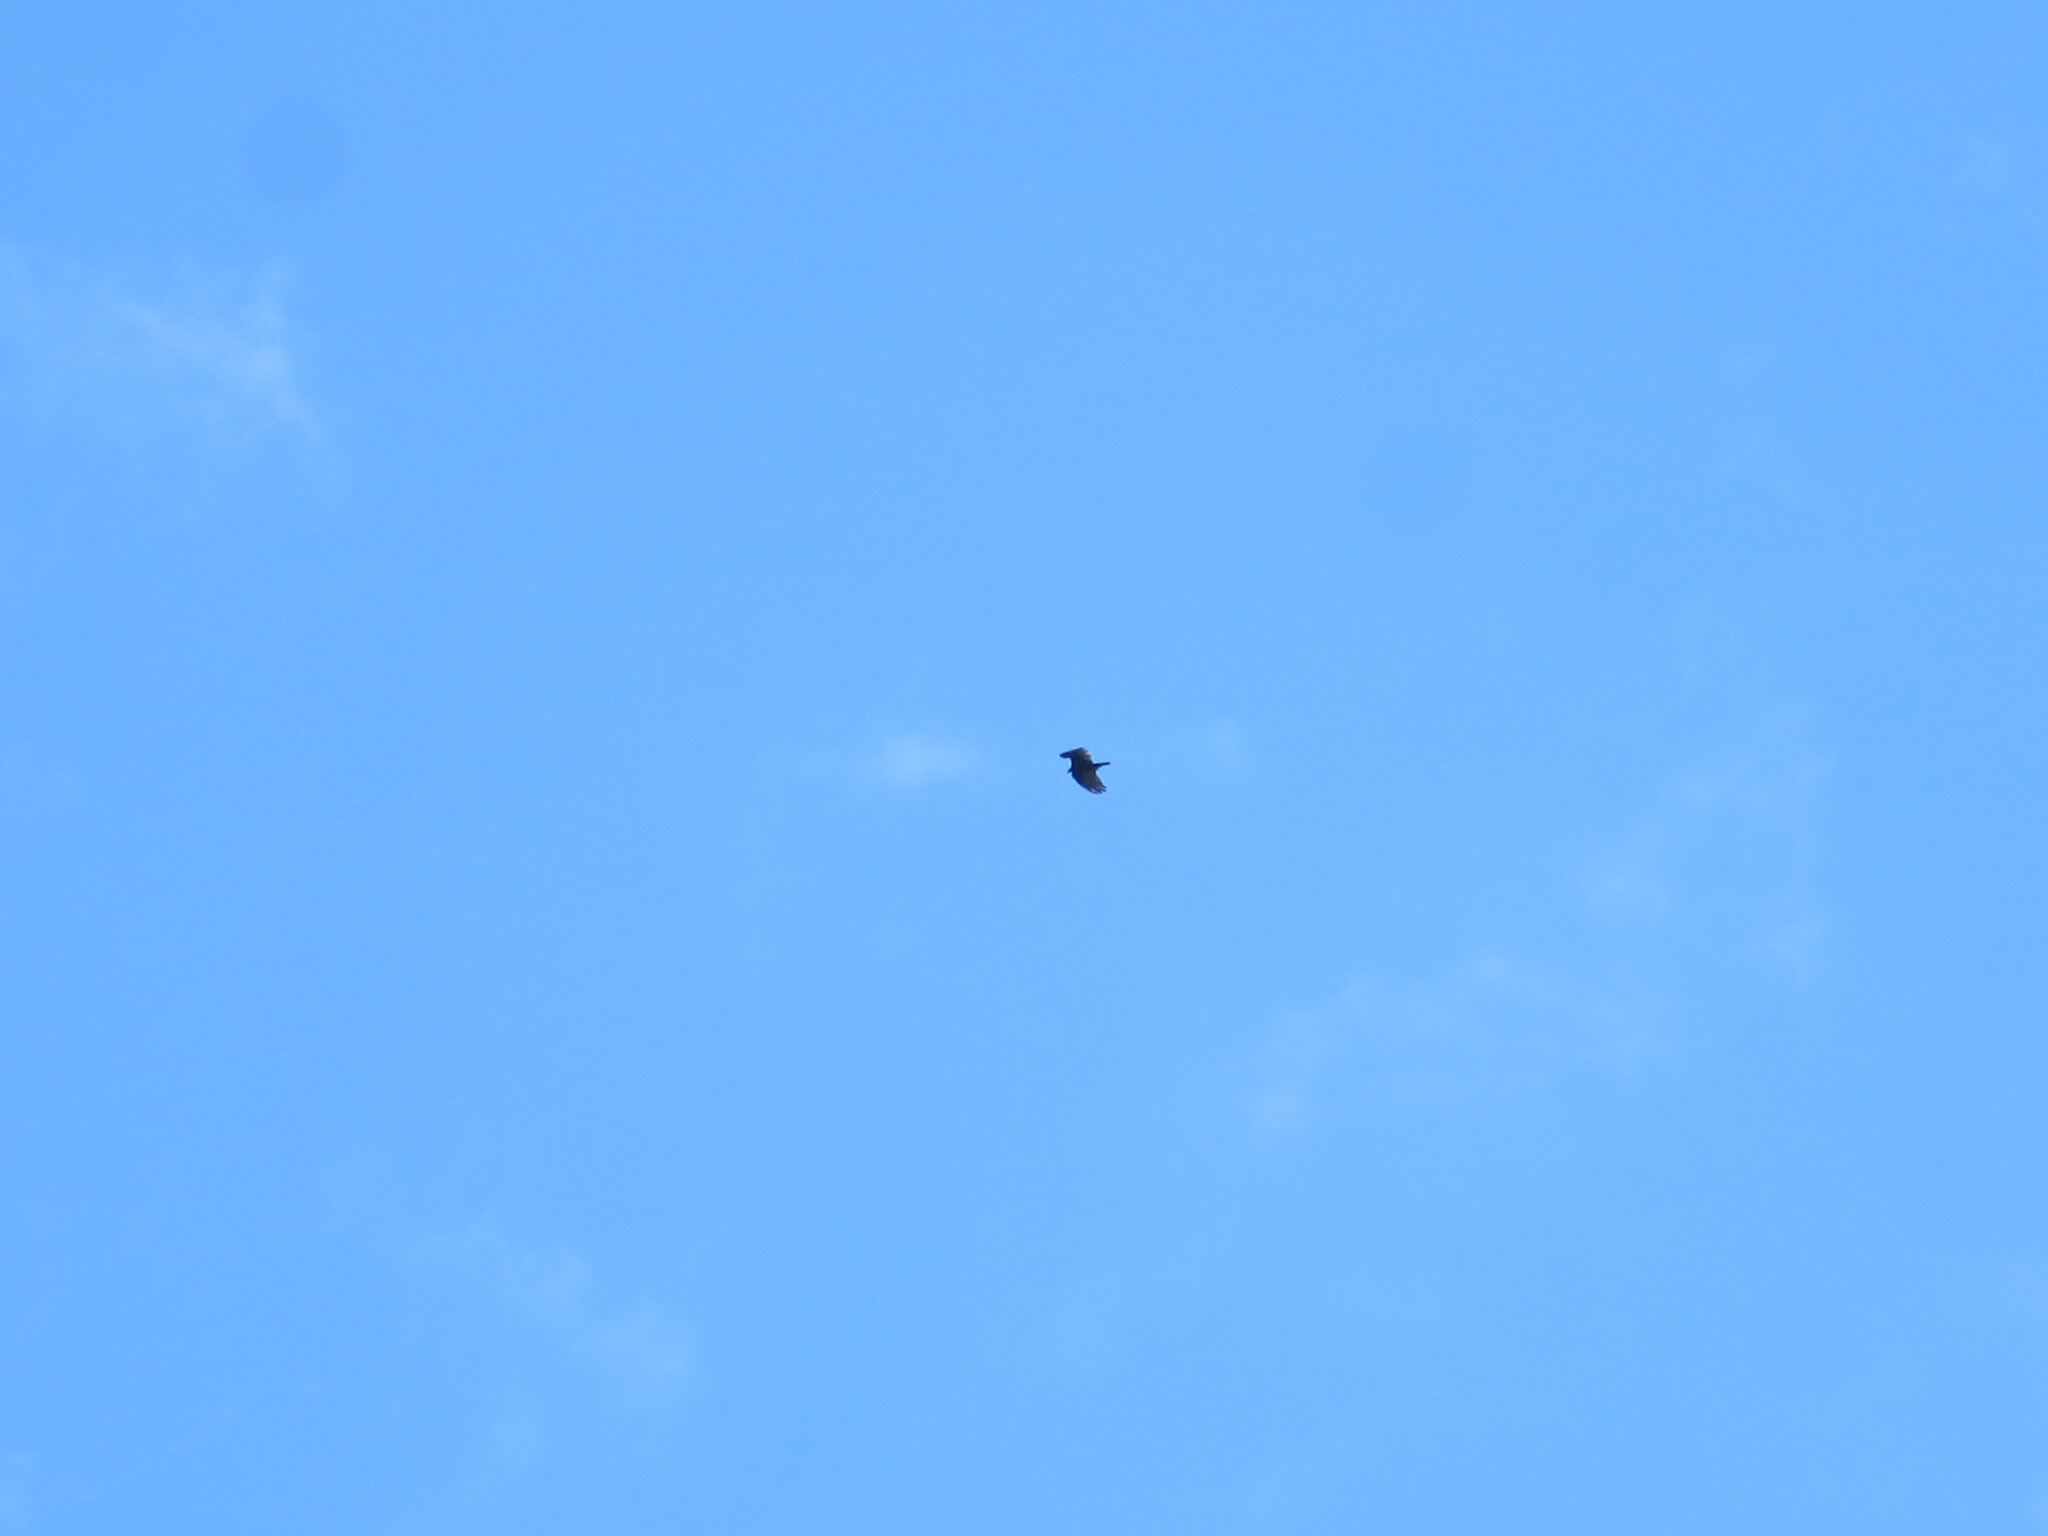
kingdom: Animalia
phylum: Chordata
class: Aves
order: Accipitriformes
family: Cathartidae
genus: Cathartes
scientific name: Cathartes aura
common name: Turkey vulture
